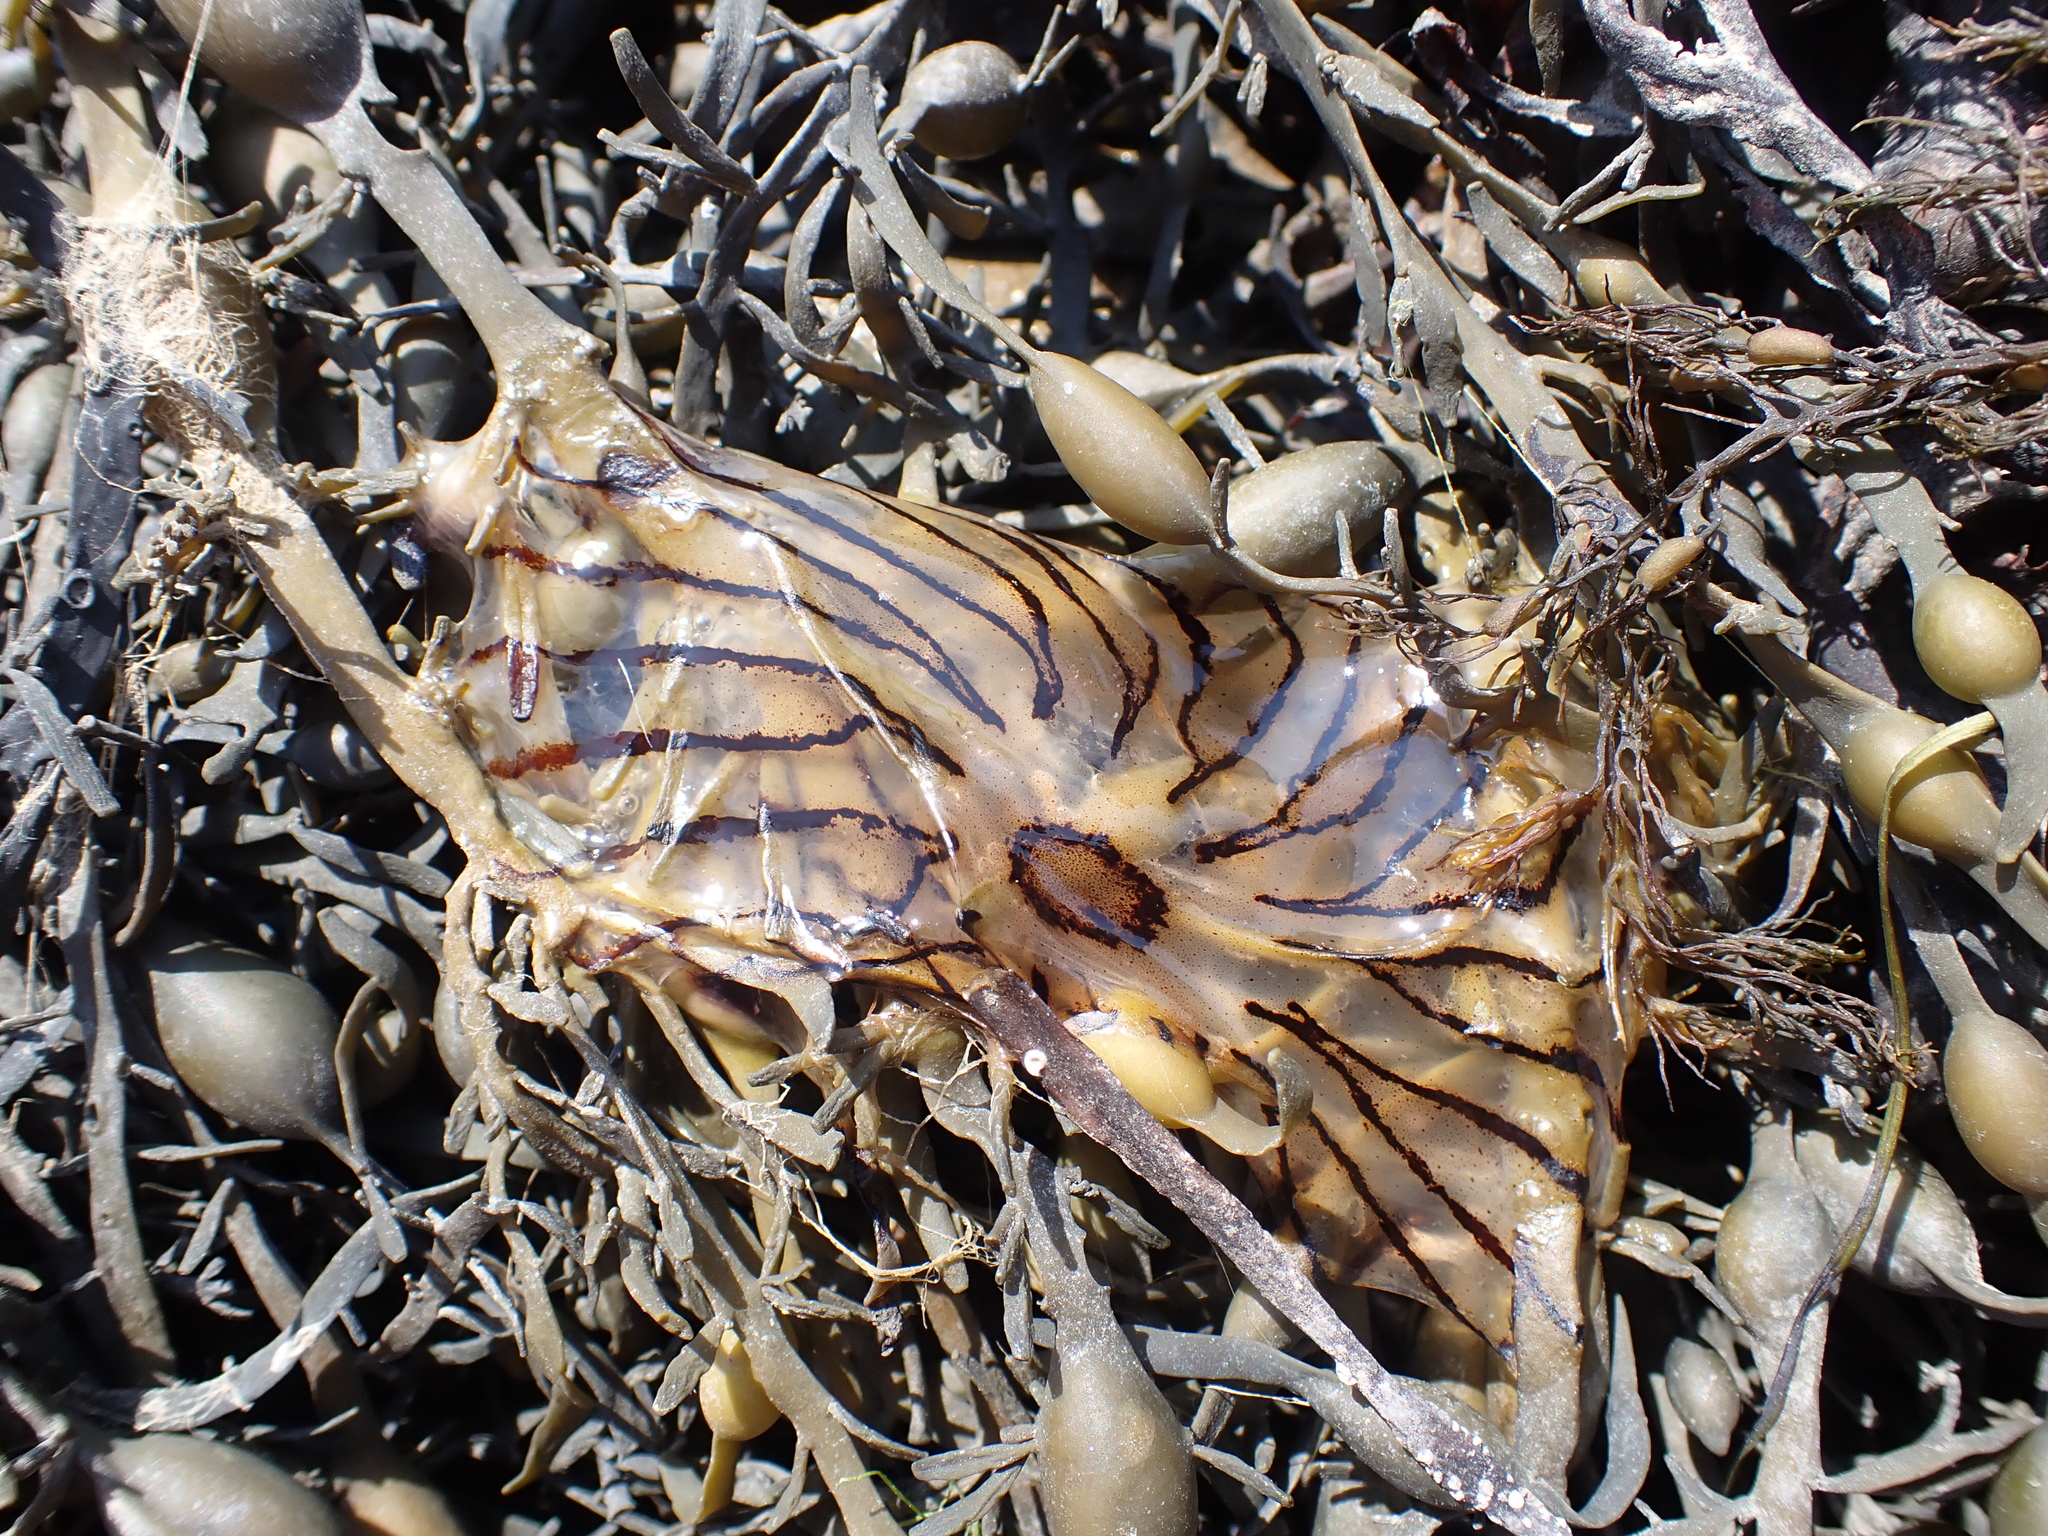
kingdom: Animalia
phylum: Cnidaria
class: Scyphozoa
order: Semaeostomeae
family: Pelagiidae
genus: Chrysaora
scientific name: Chrysaora hysoscella
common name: Compass jellyfish
